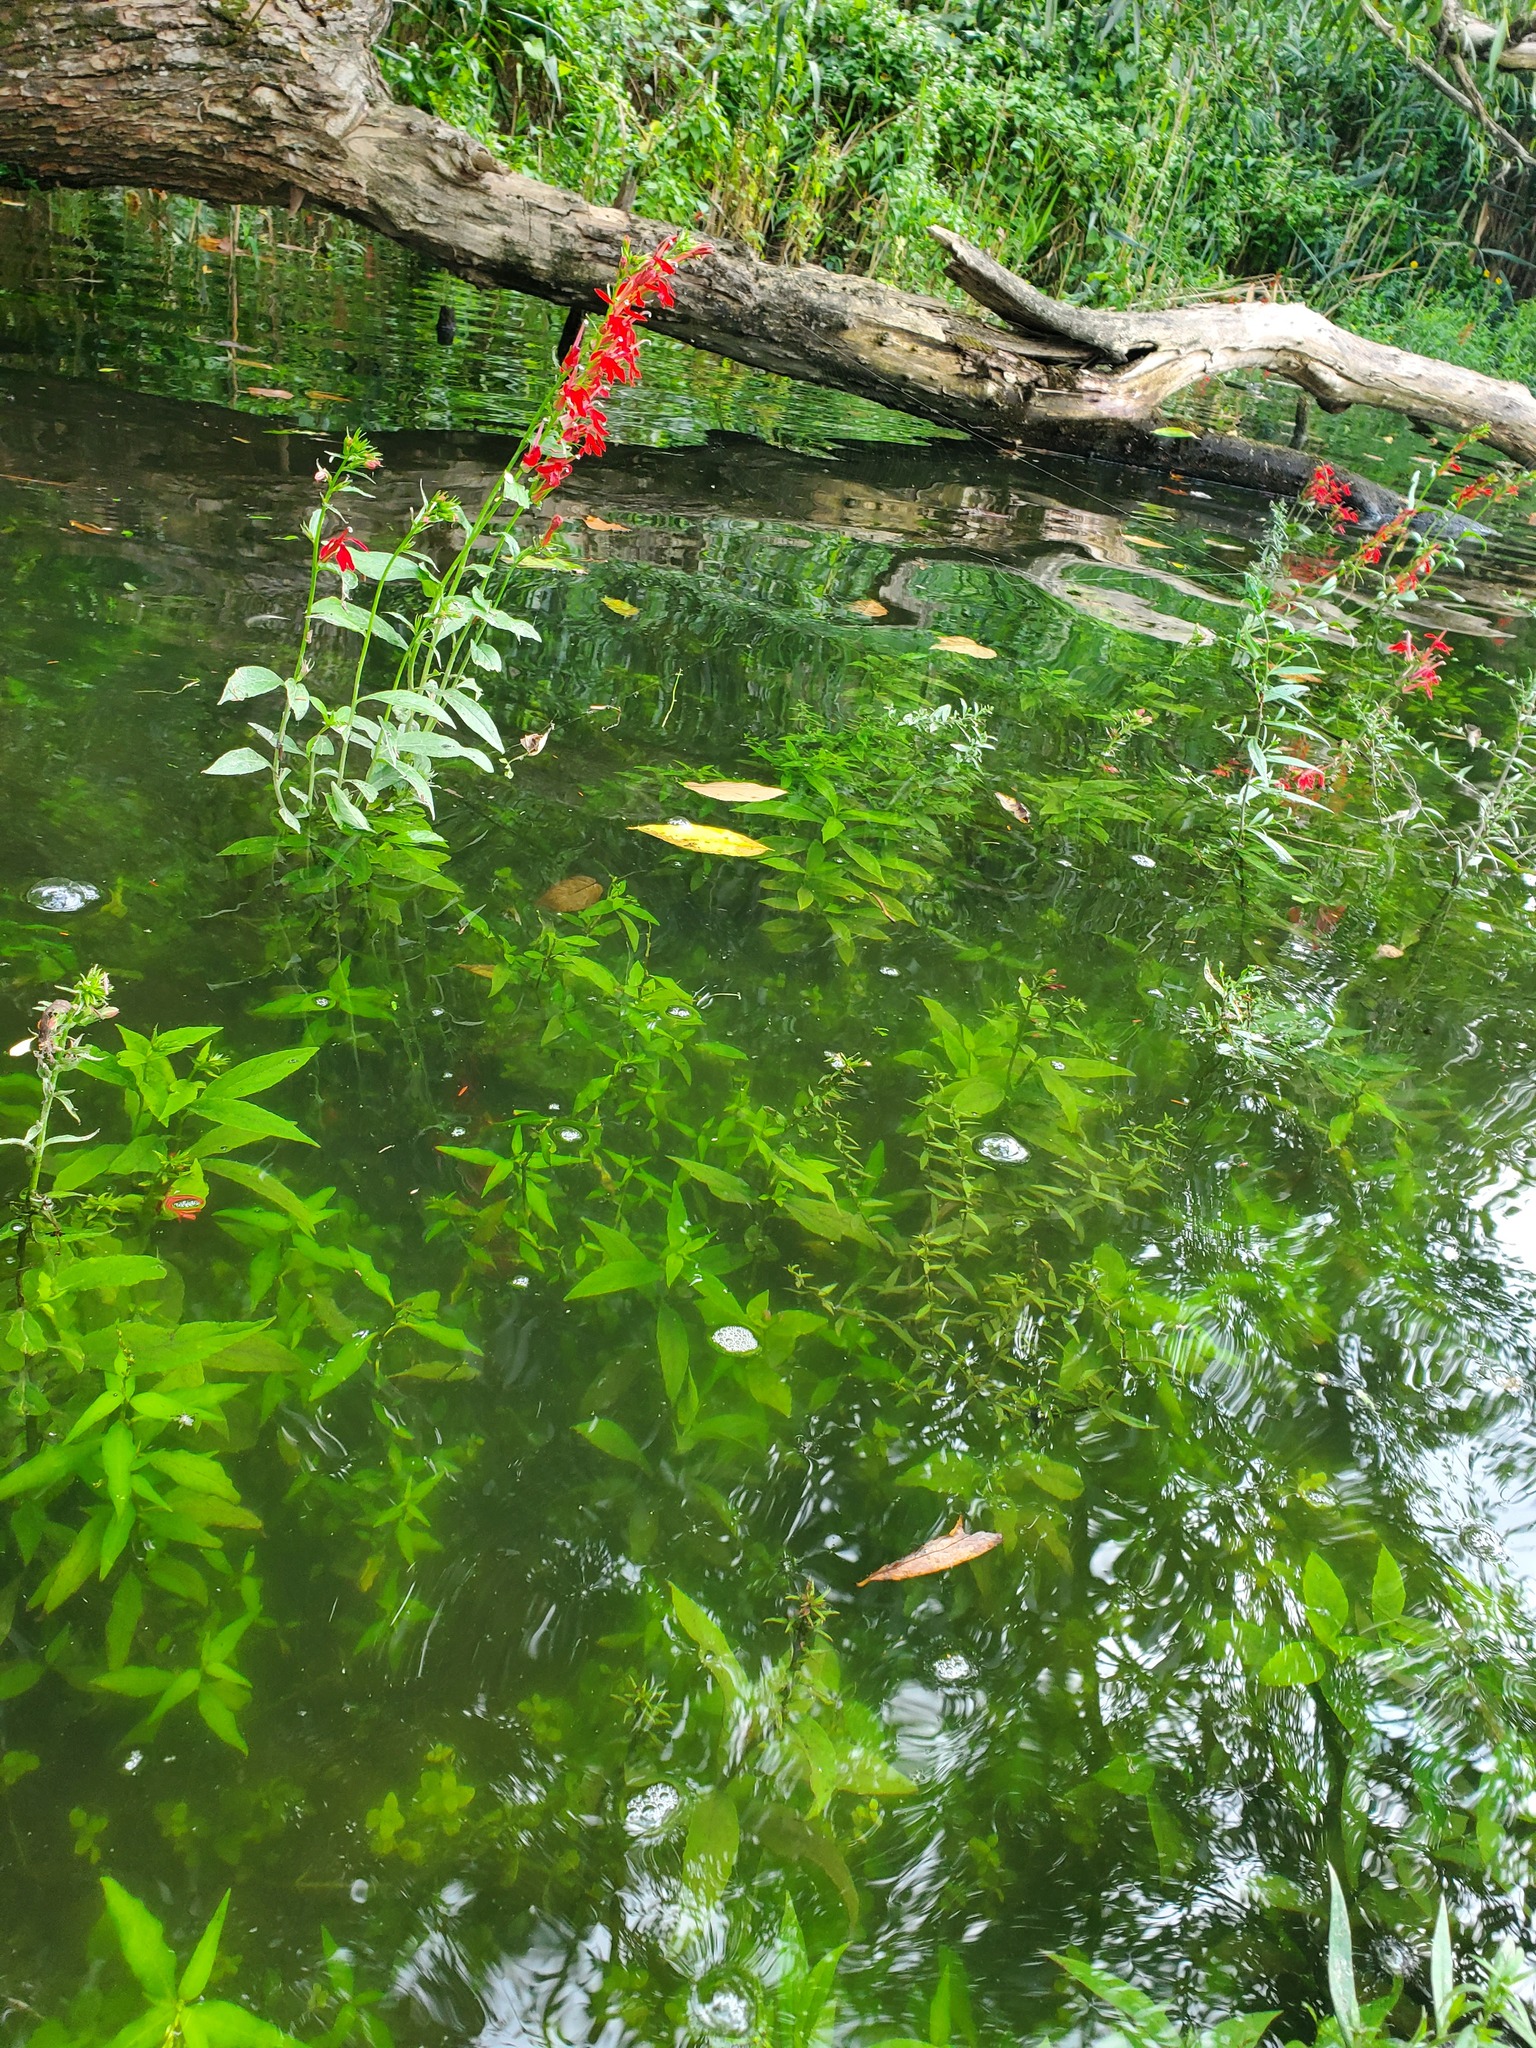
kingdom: Plantae
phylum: Tracheophyta
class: Magnoliopsida
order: Asterales
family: Campanulaceae
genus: Lobelia
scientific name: Lobelia cardinalis
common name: Cardinal flower
